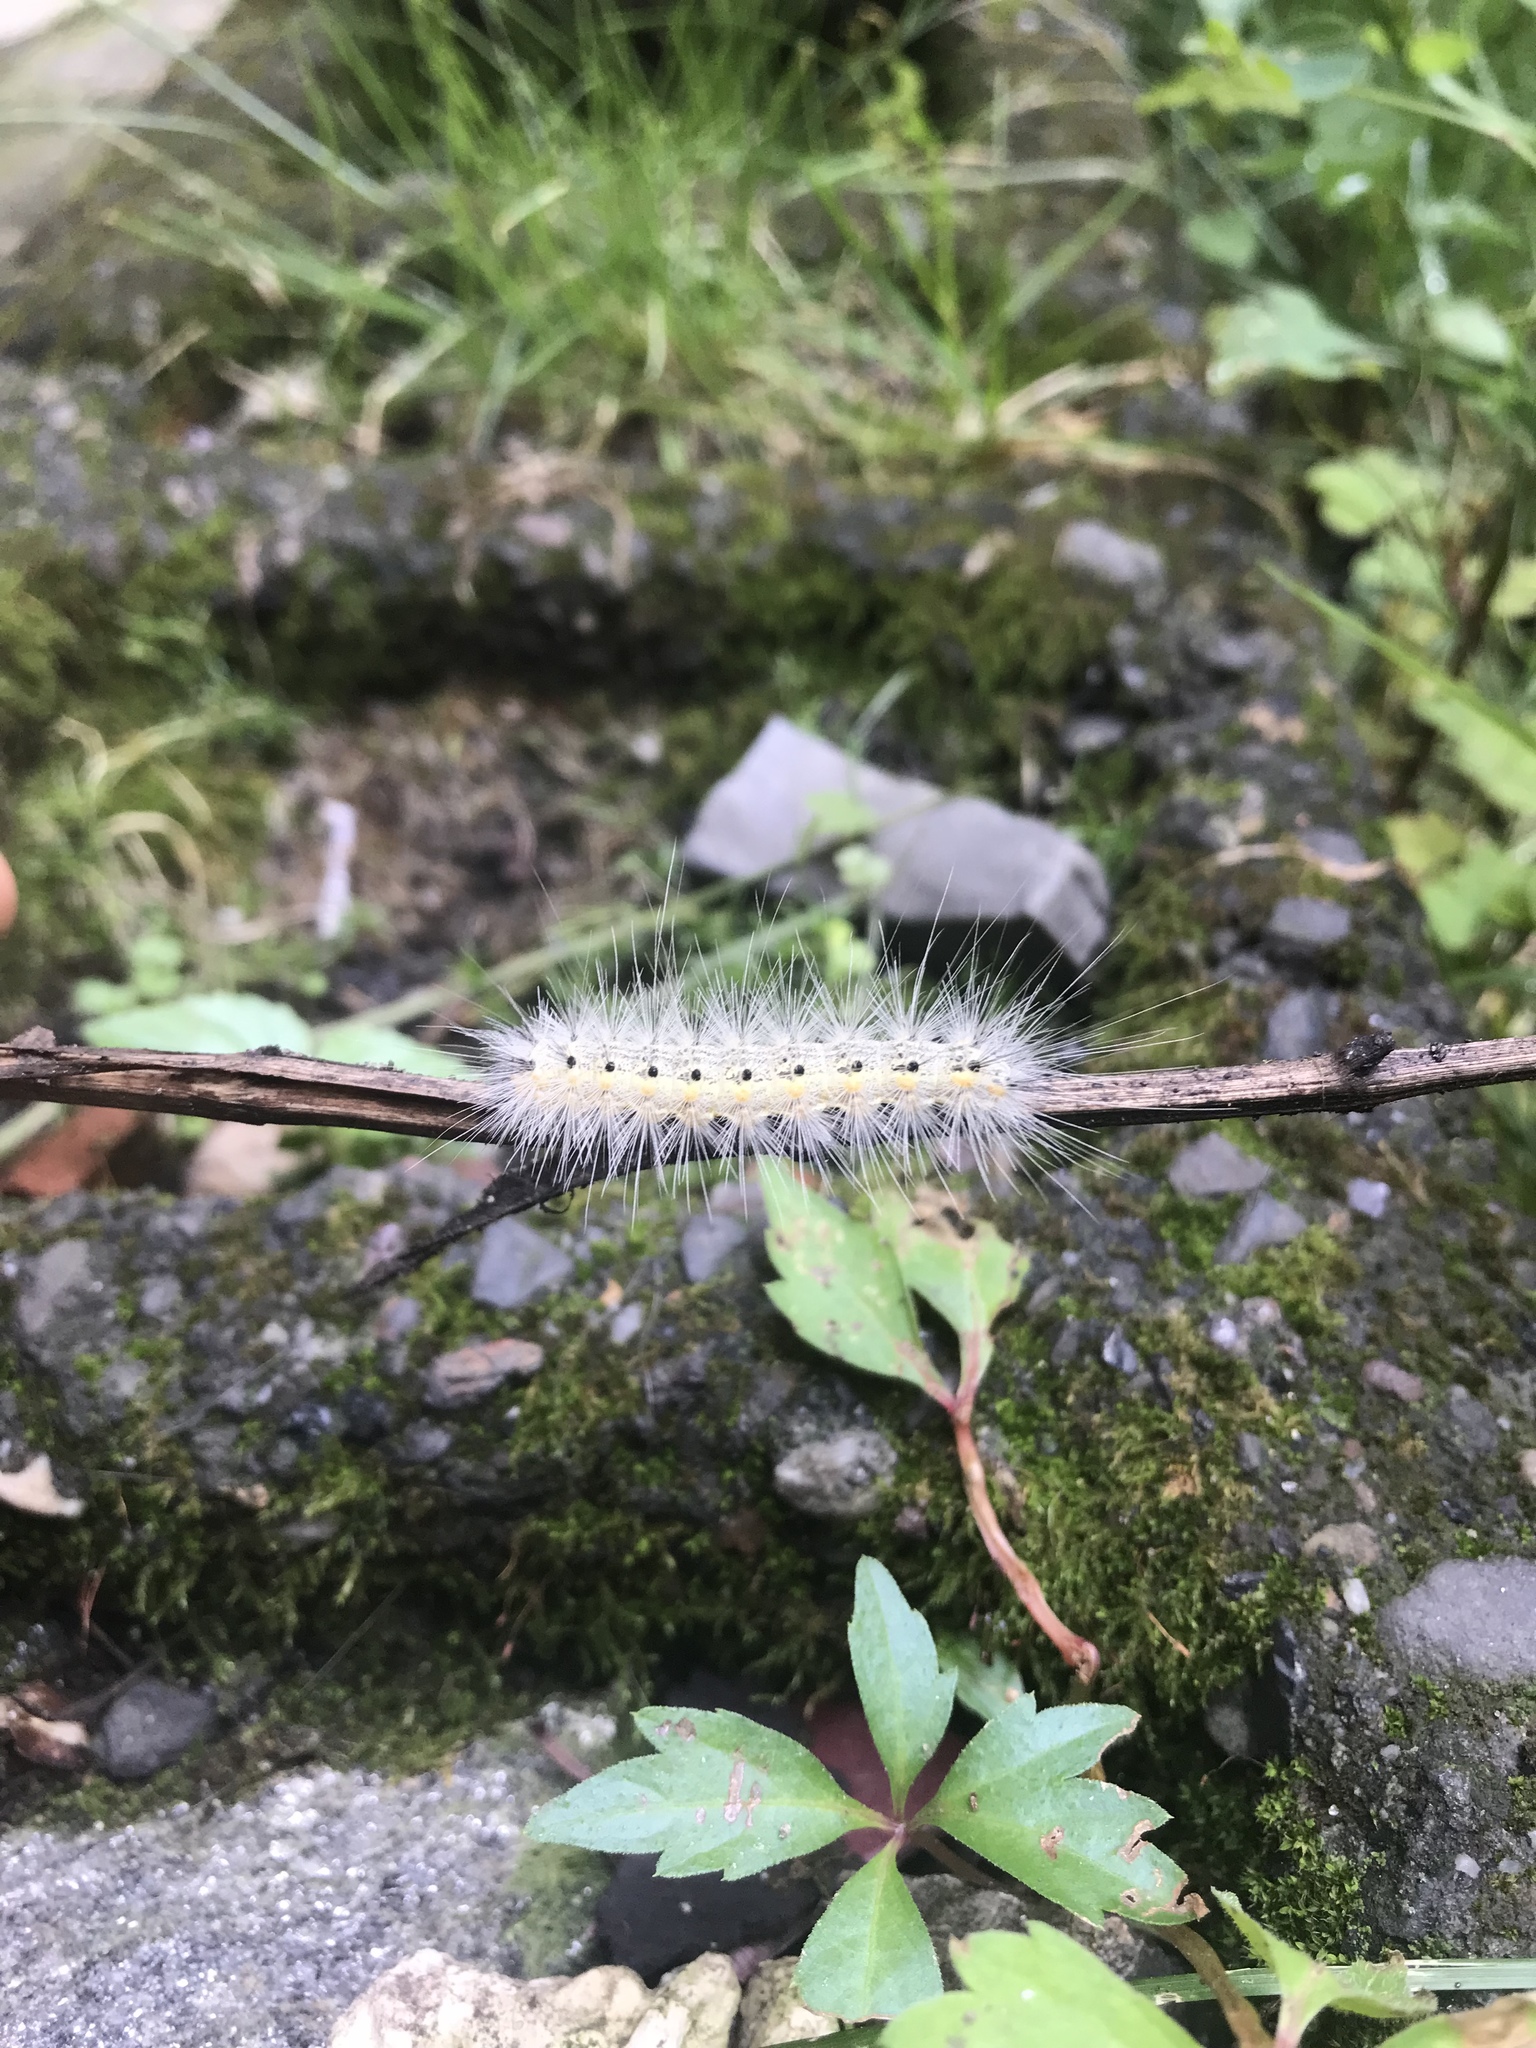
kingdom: Animalia
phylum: Arthropoda
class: Insecta
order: Lepidoptera
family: Erebidae
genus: Hyphantria
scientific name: Hyphantria cunea
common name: American white moth
